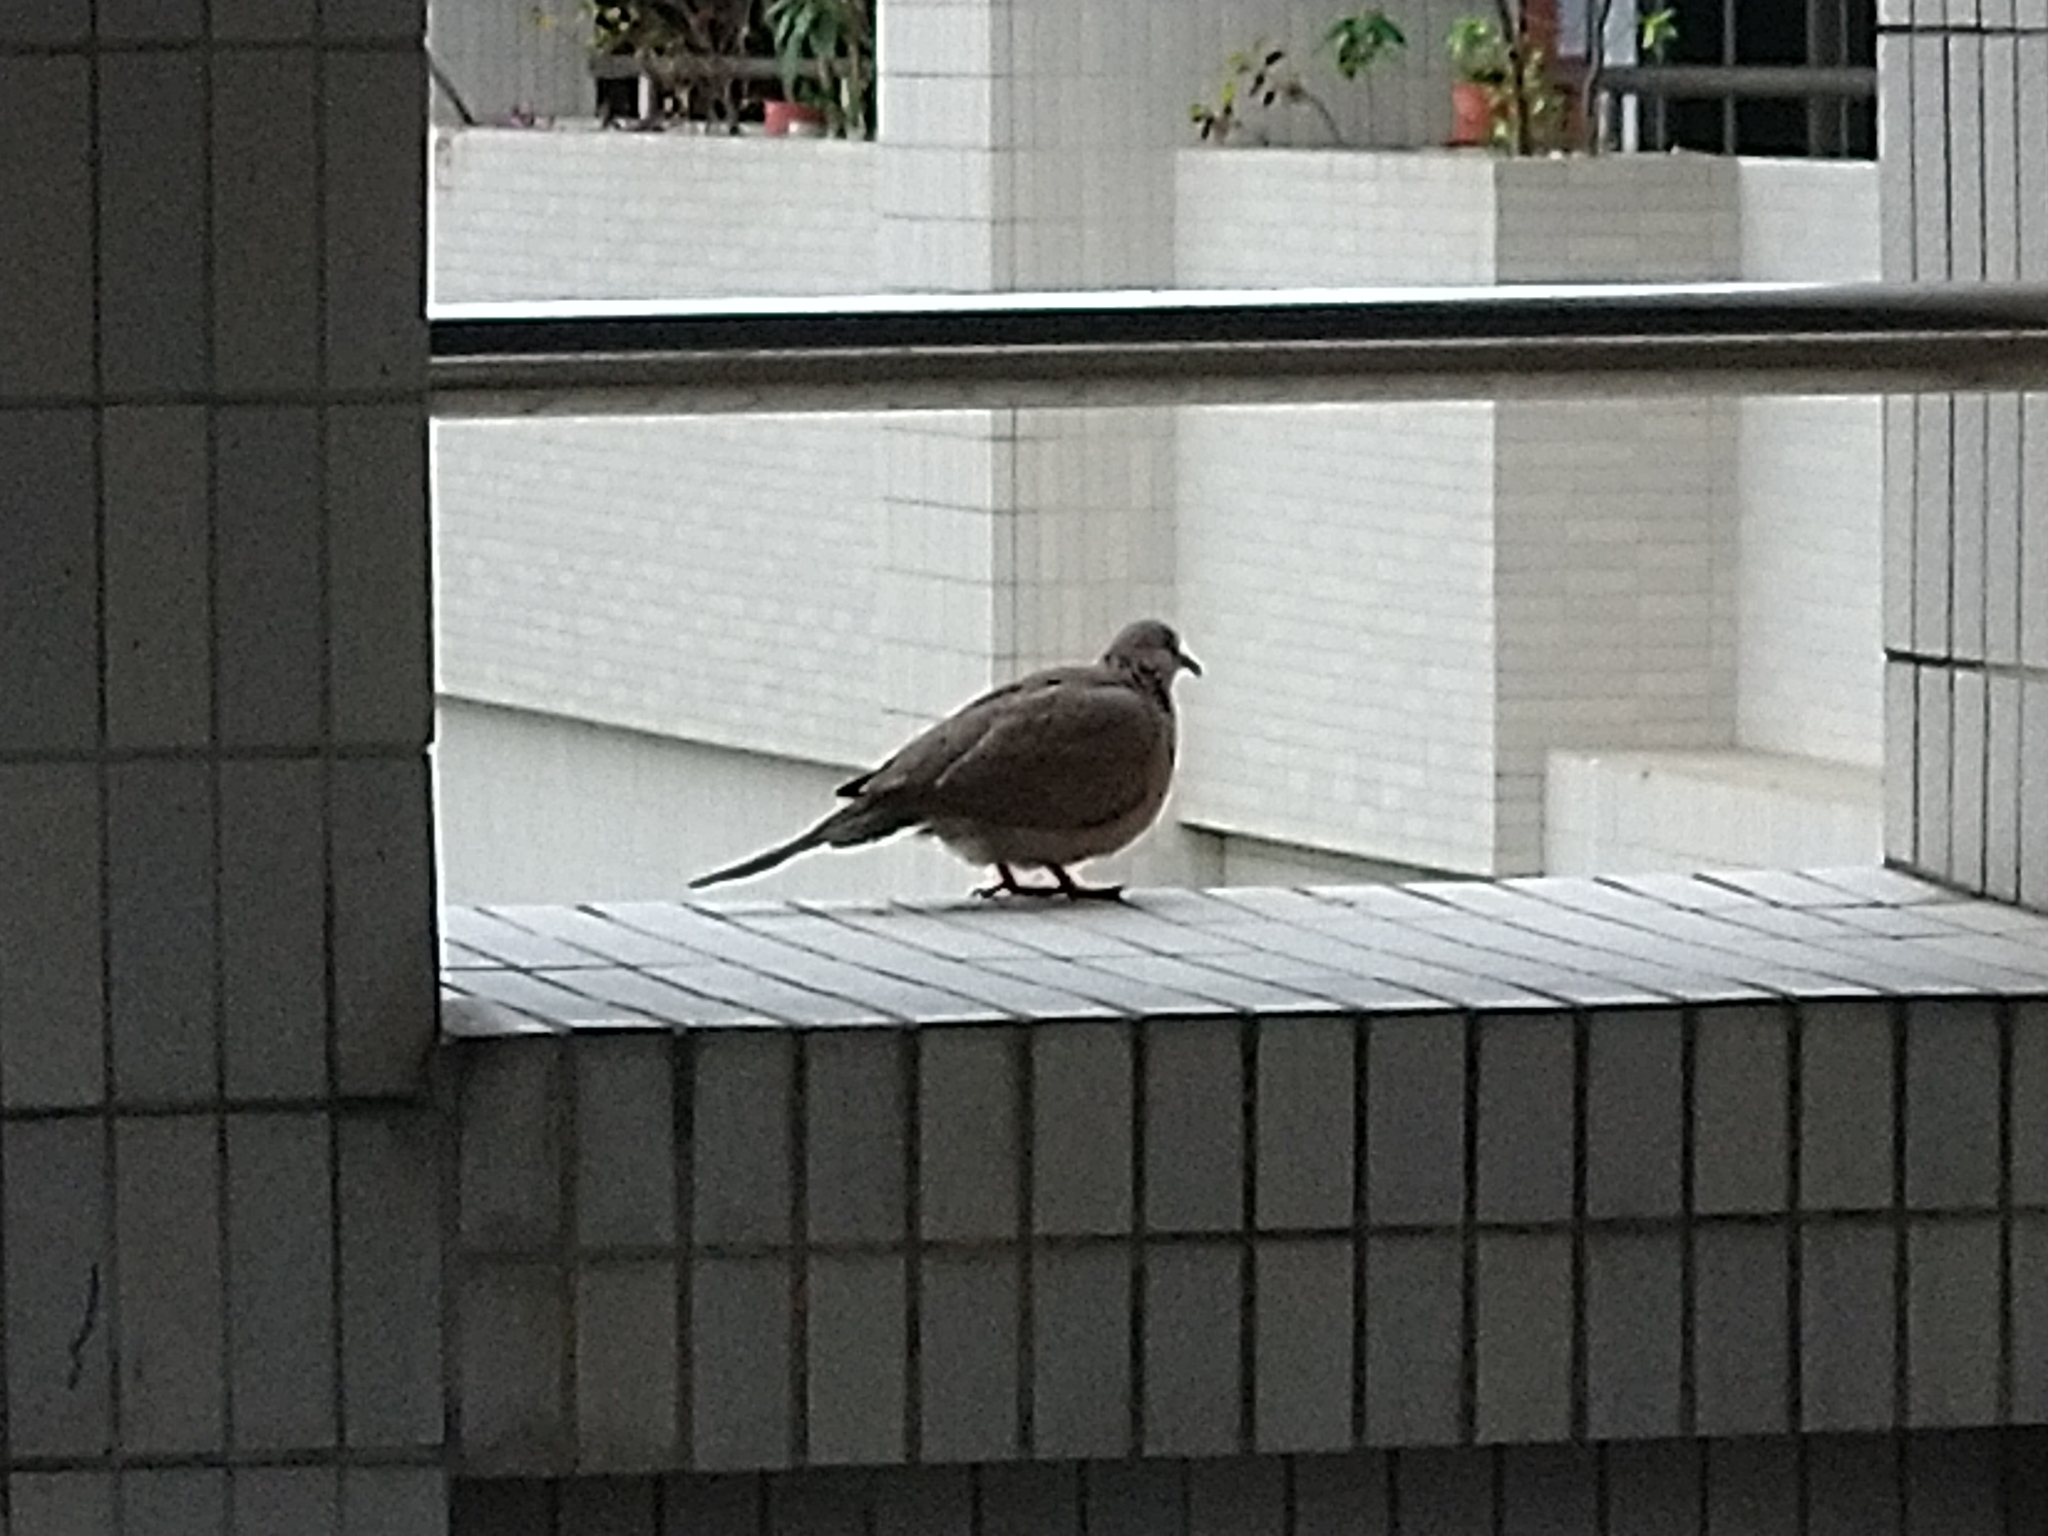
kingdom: Animalia
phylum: Chordata
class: Aves
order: Columbiformes
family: Columbidae
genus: Spilopelia
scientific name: Spilopelia chinensis
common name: Spotted dove
